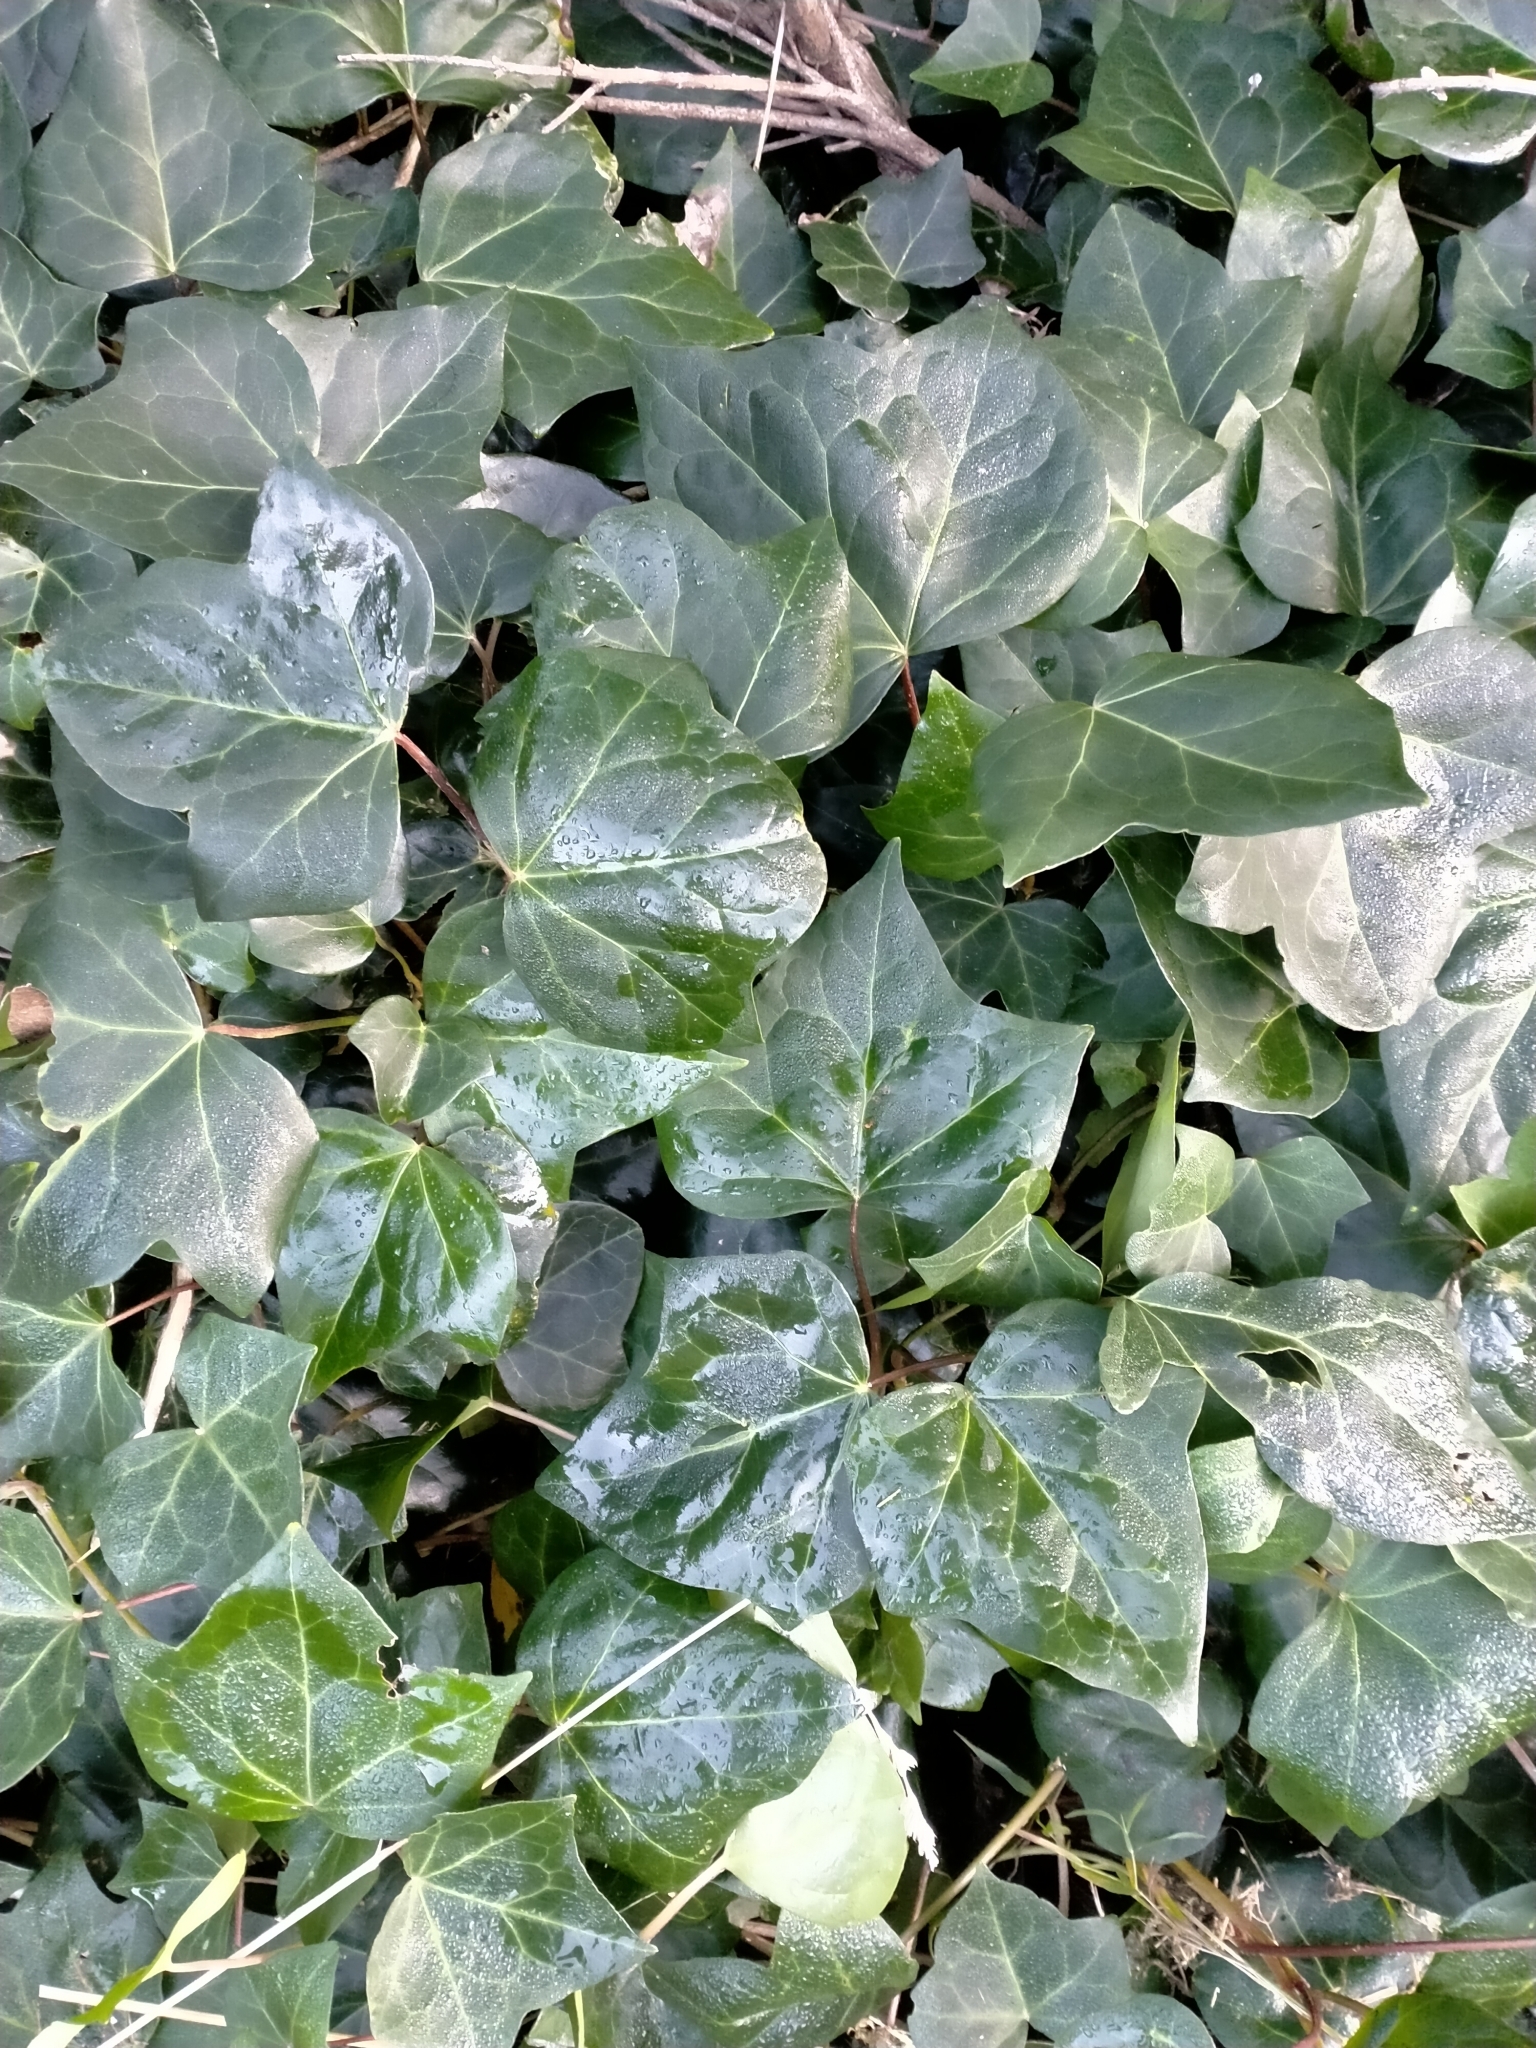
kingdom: Plantae
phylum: Tracheophyta
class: Magnoliopsida
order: Apiales
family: Araliaceae
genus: Hedera
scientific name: Hedera helix
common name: Ivy
